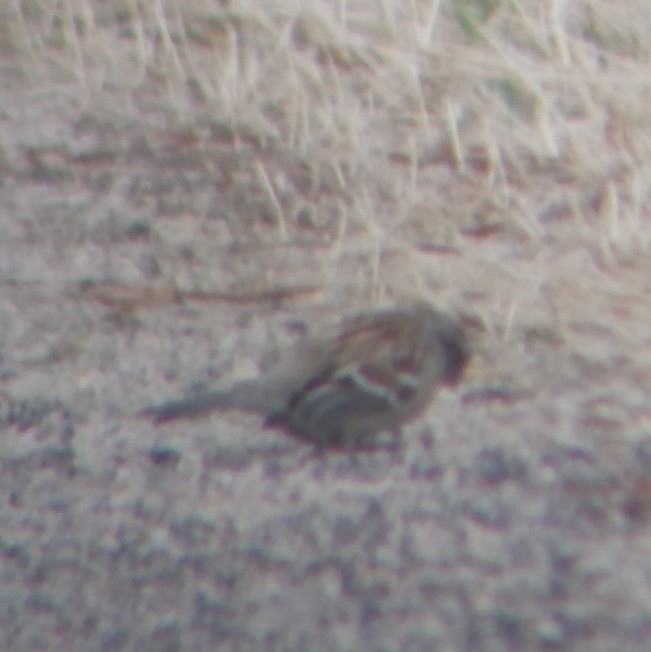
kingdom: Animalia
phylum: Chordata
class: Aves
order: Passeriformes
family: Passerellidae
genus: Spizelloides
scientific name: Spizelloides arborea
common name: American tree sparrow
